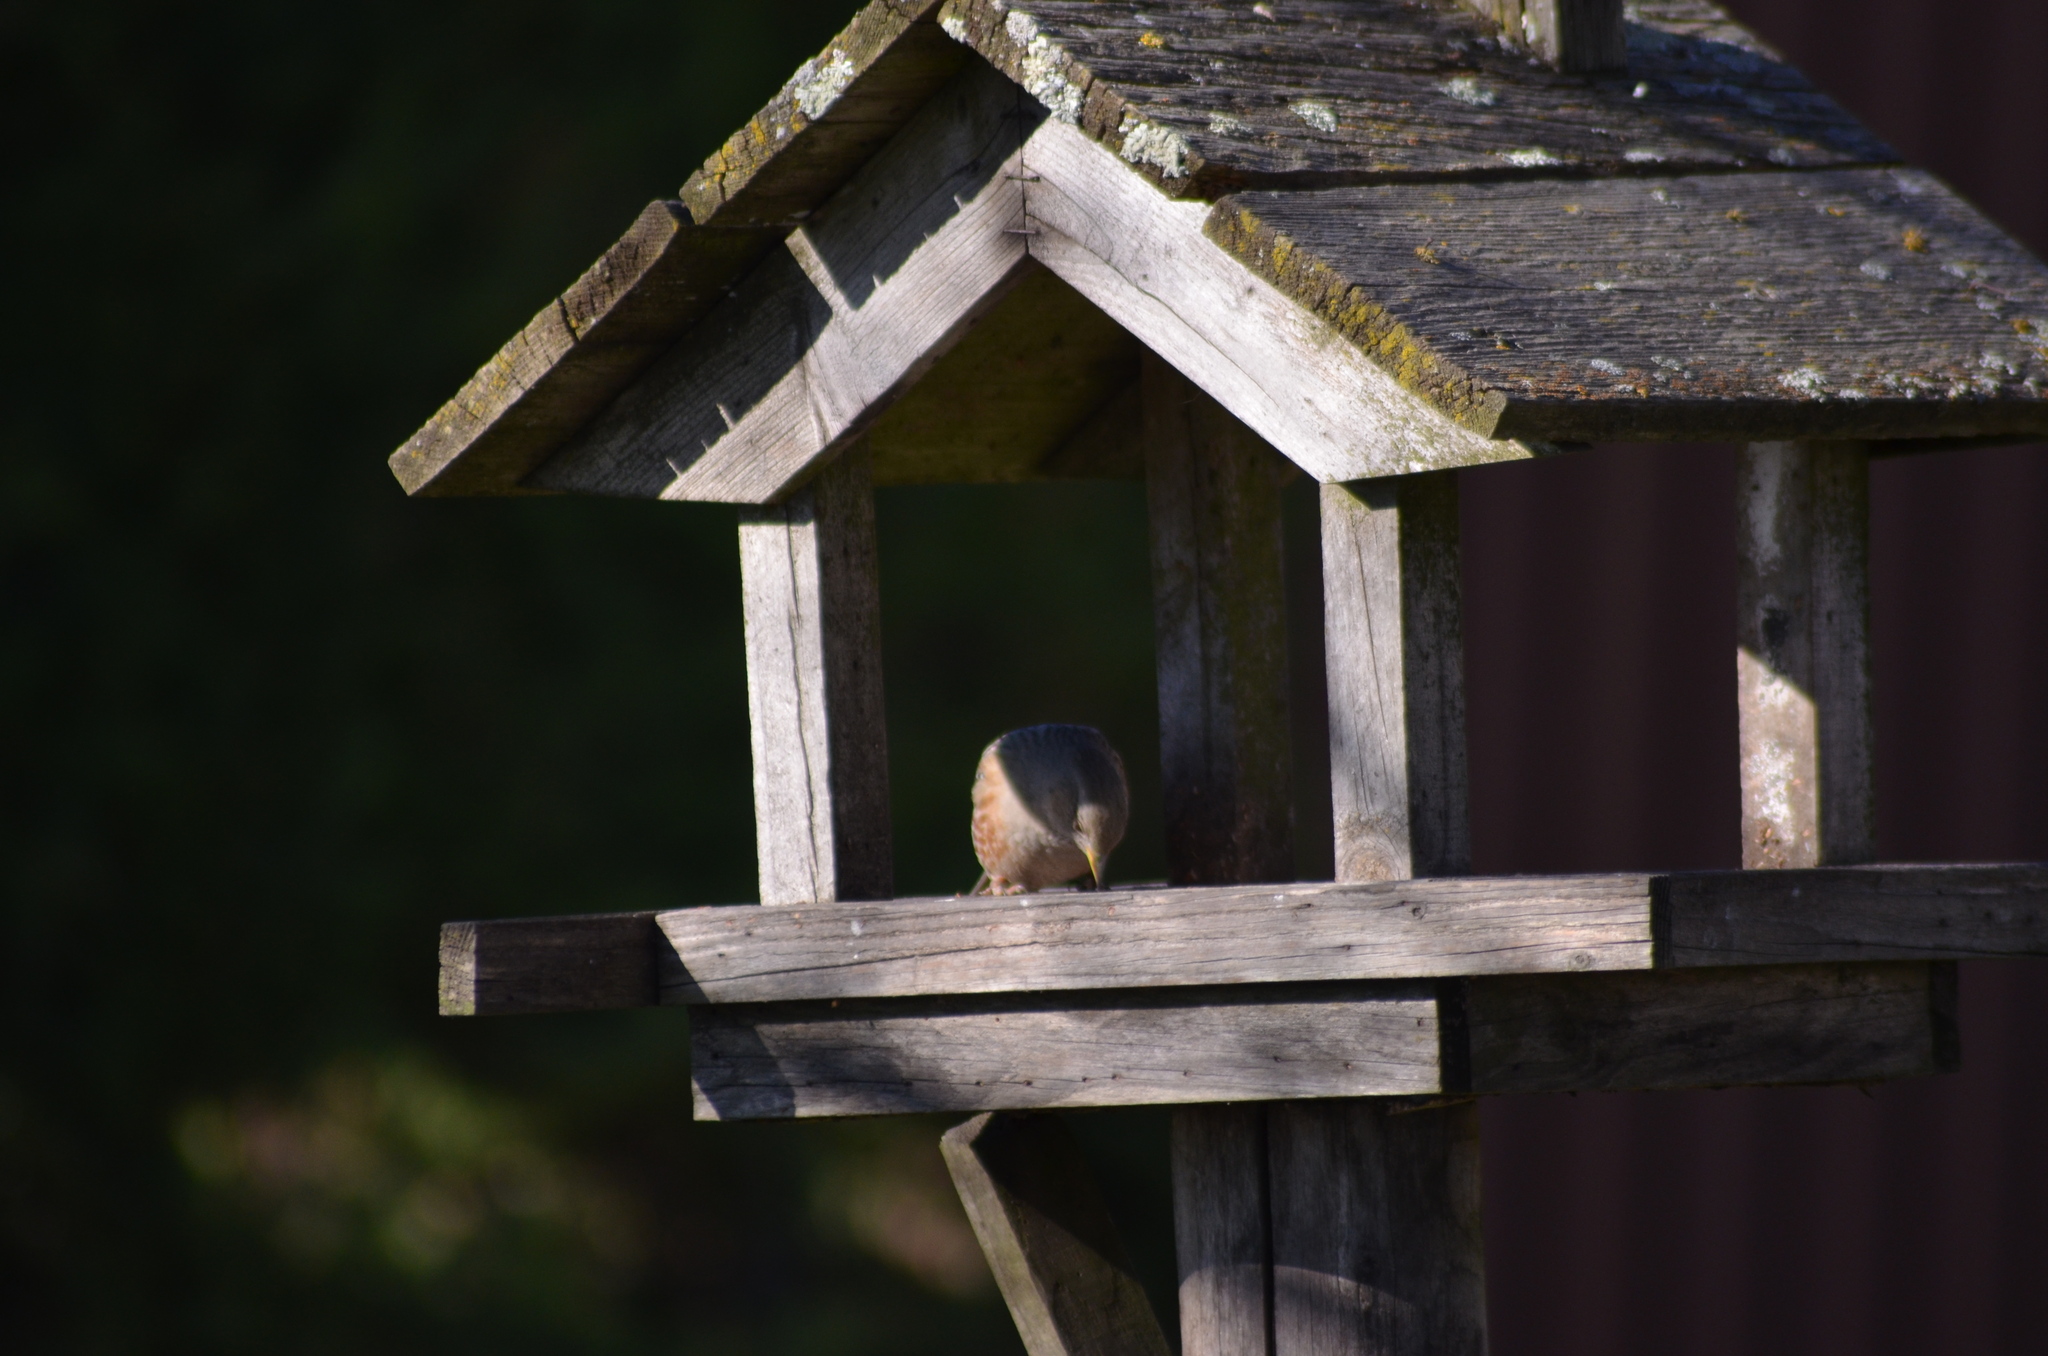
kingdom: Animalia
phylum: Chordata
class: Aves
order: Passeriformes
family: Prunellidae
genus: Prunella
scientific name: Prunella collaris
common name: Alpine accentor
